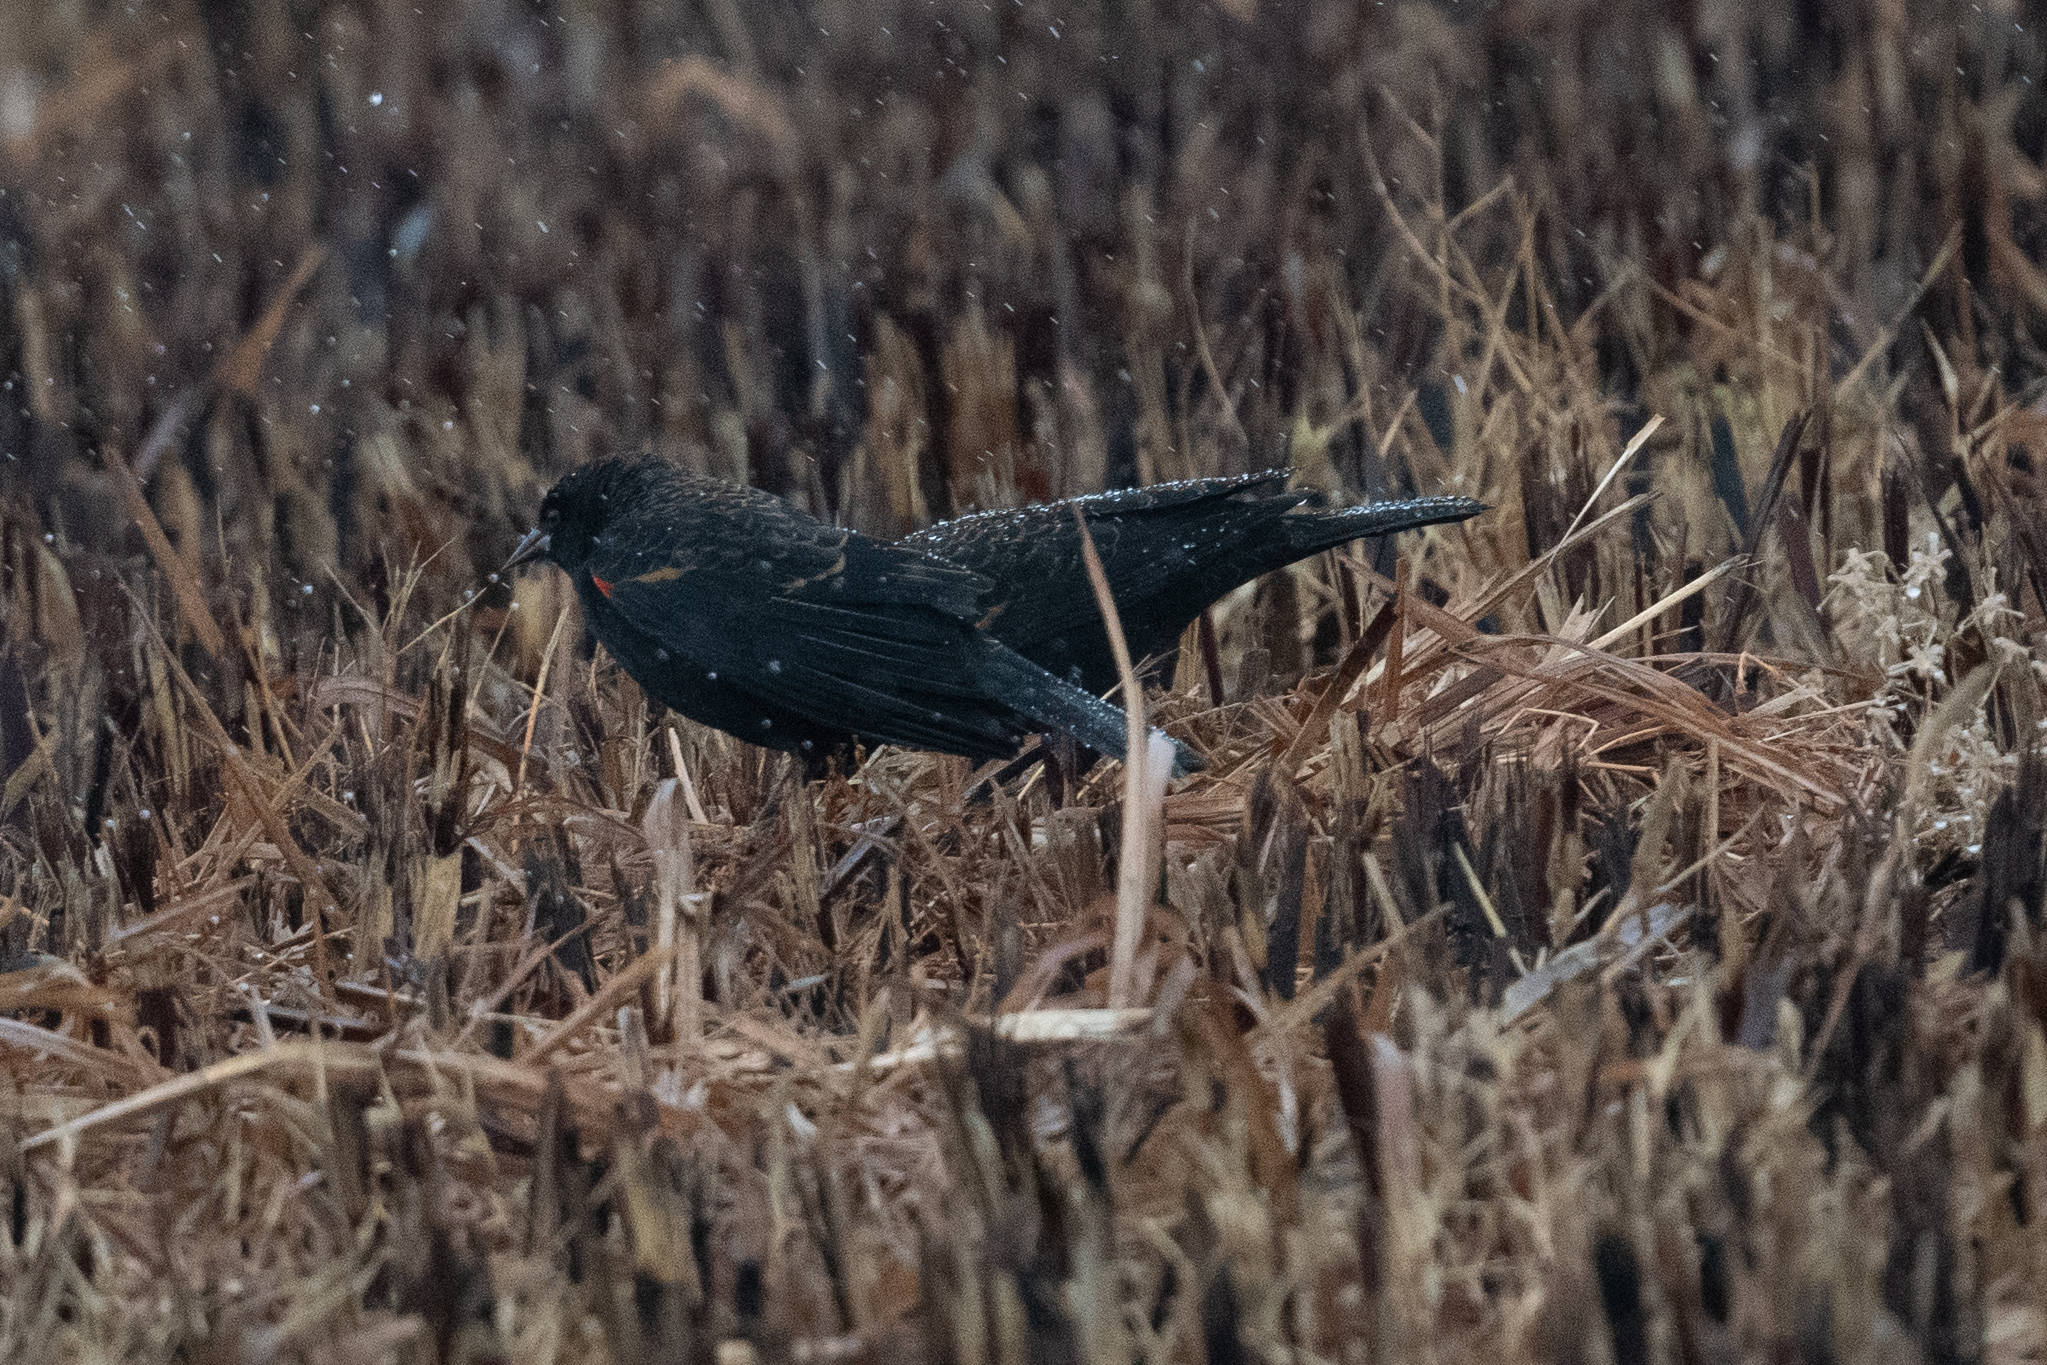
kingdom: Animalia
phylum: Chordata
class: Aves
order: Passeriformes
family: Icteridae
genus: Agelaius
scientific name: Agelaius phoeniceus
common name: Red-winged blackbird
